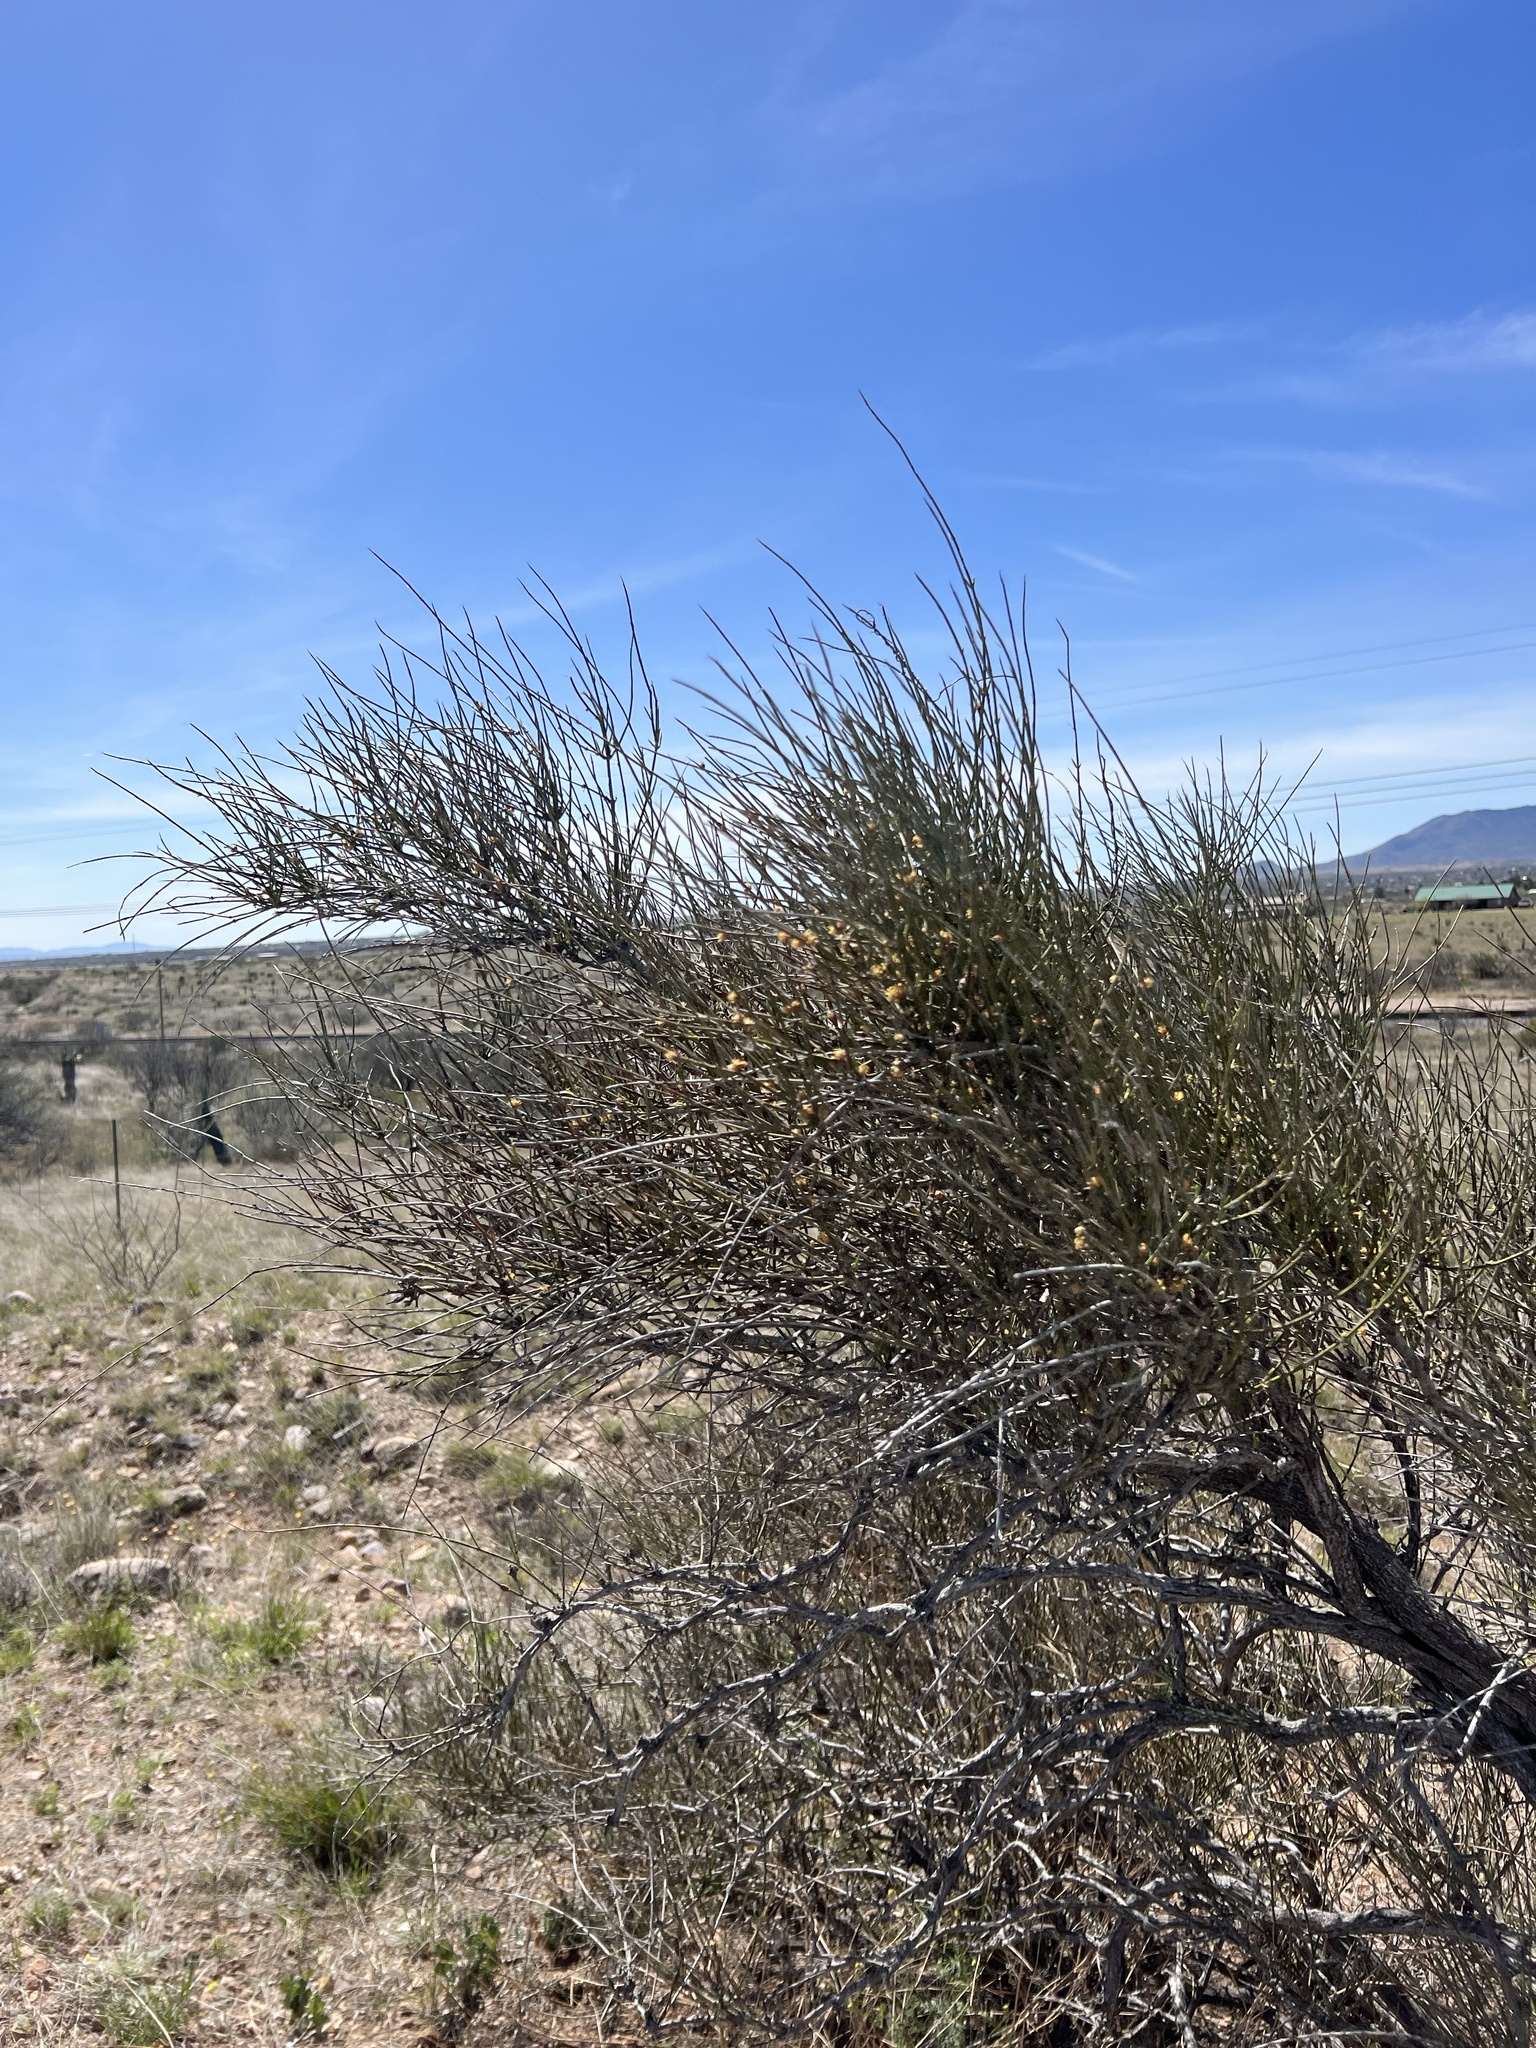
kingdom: Plantae
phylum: Tracheophyta
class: Gnetopsida
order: Ephedrales
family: Ephedraceae
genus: Ephedra
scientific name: Ephedra trifurca
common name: Mexican-tea
